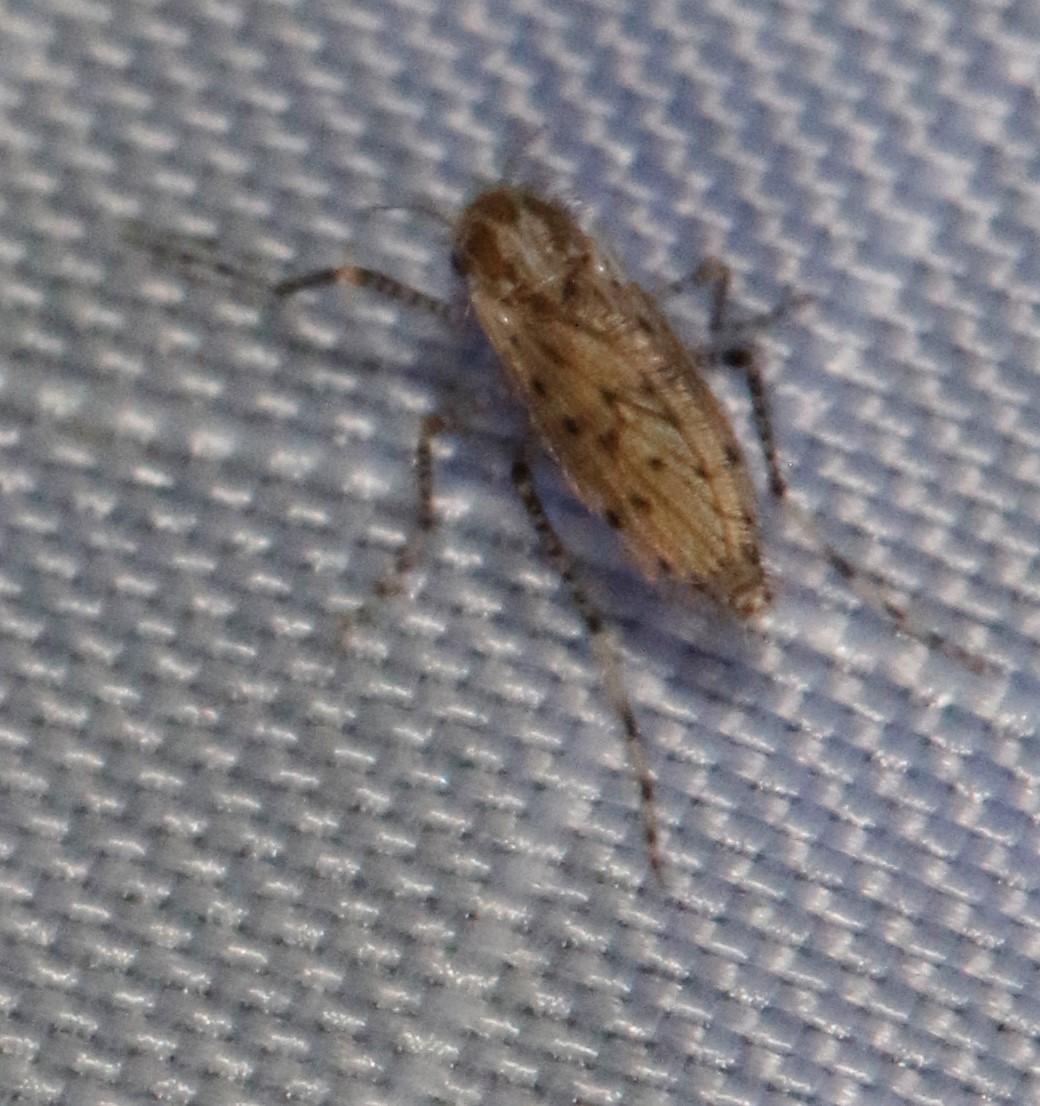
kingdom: Animalia
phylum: Arthropoda
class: Insecta
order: Diptera
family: Chaoboridae
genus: Chaoborus
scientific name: Chaoborus punctipennis
